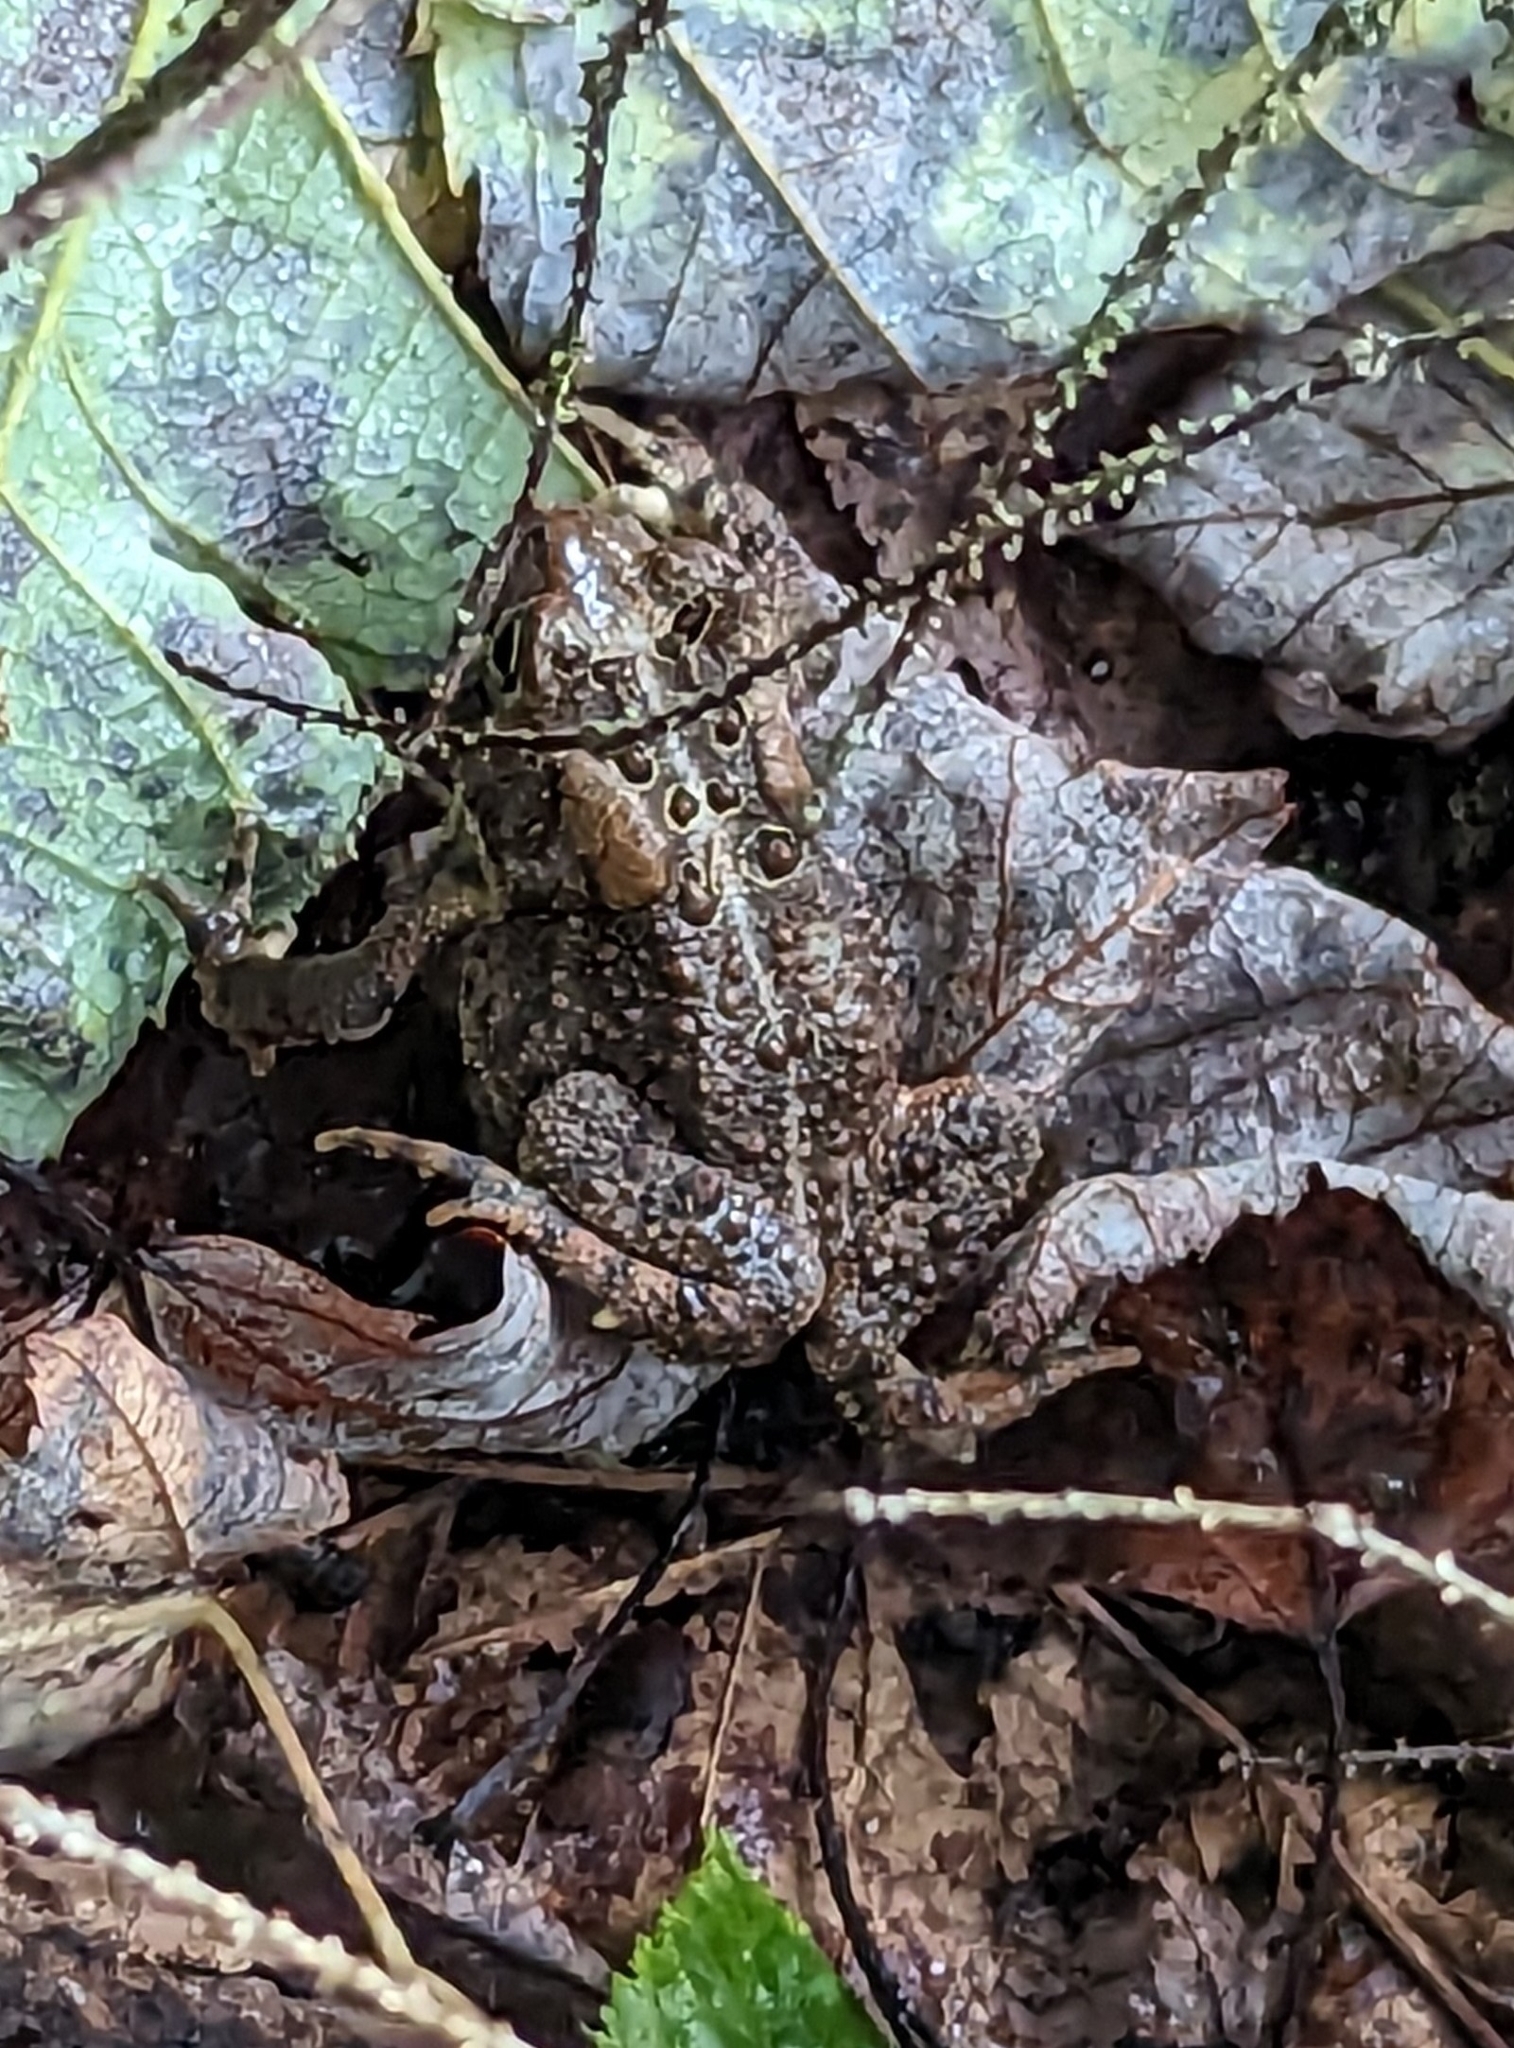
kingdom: Animalia
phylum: Chordata
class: Amphibia
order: Anura
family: Bufonidae
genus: Anaxyrus
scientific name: Anaxyrus americanus
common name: American toad
